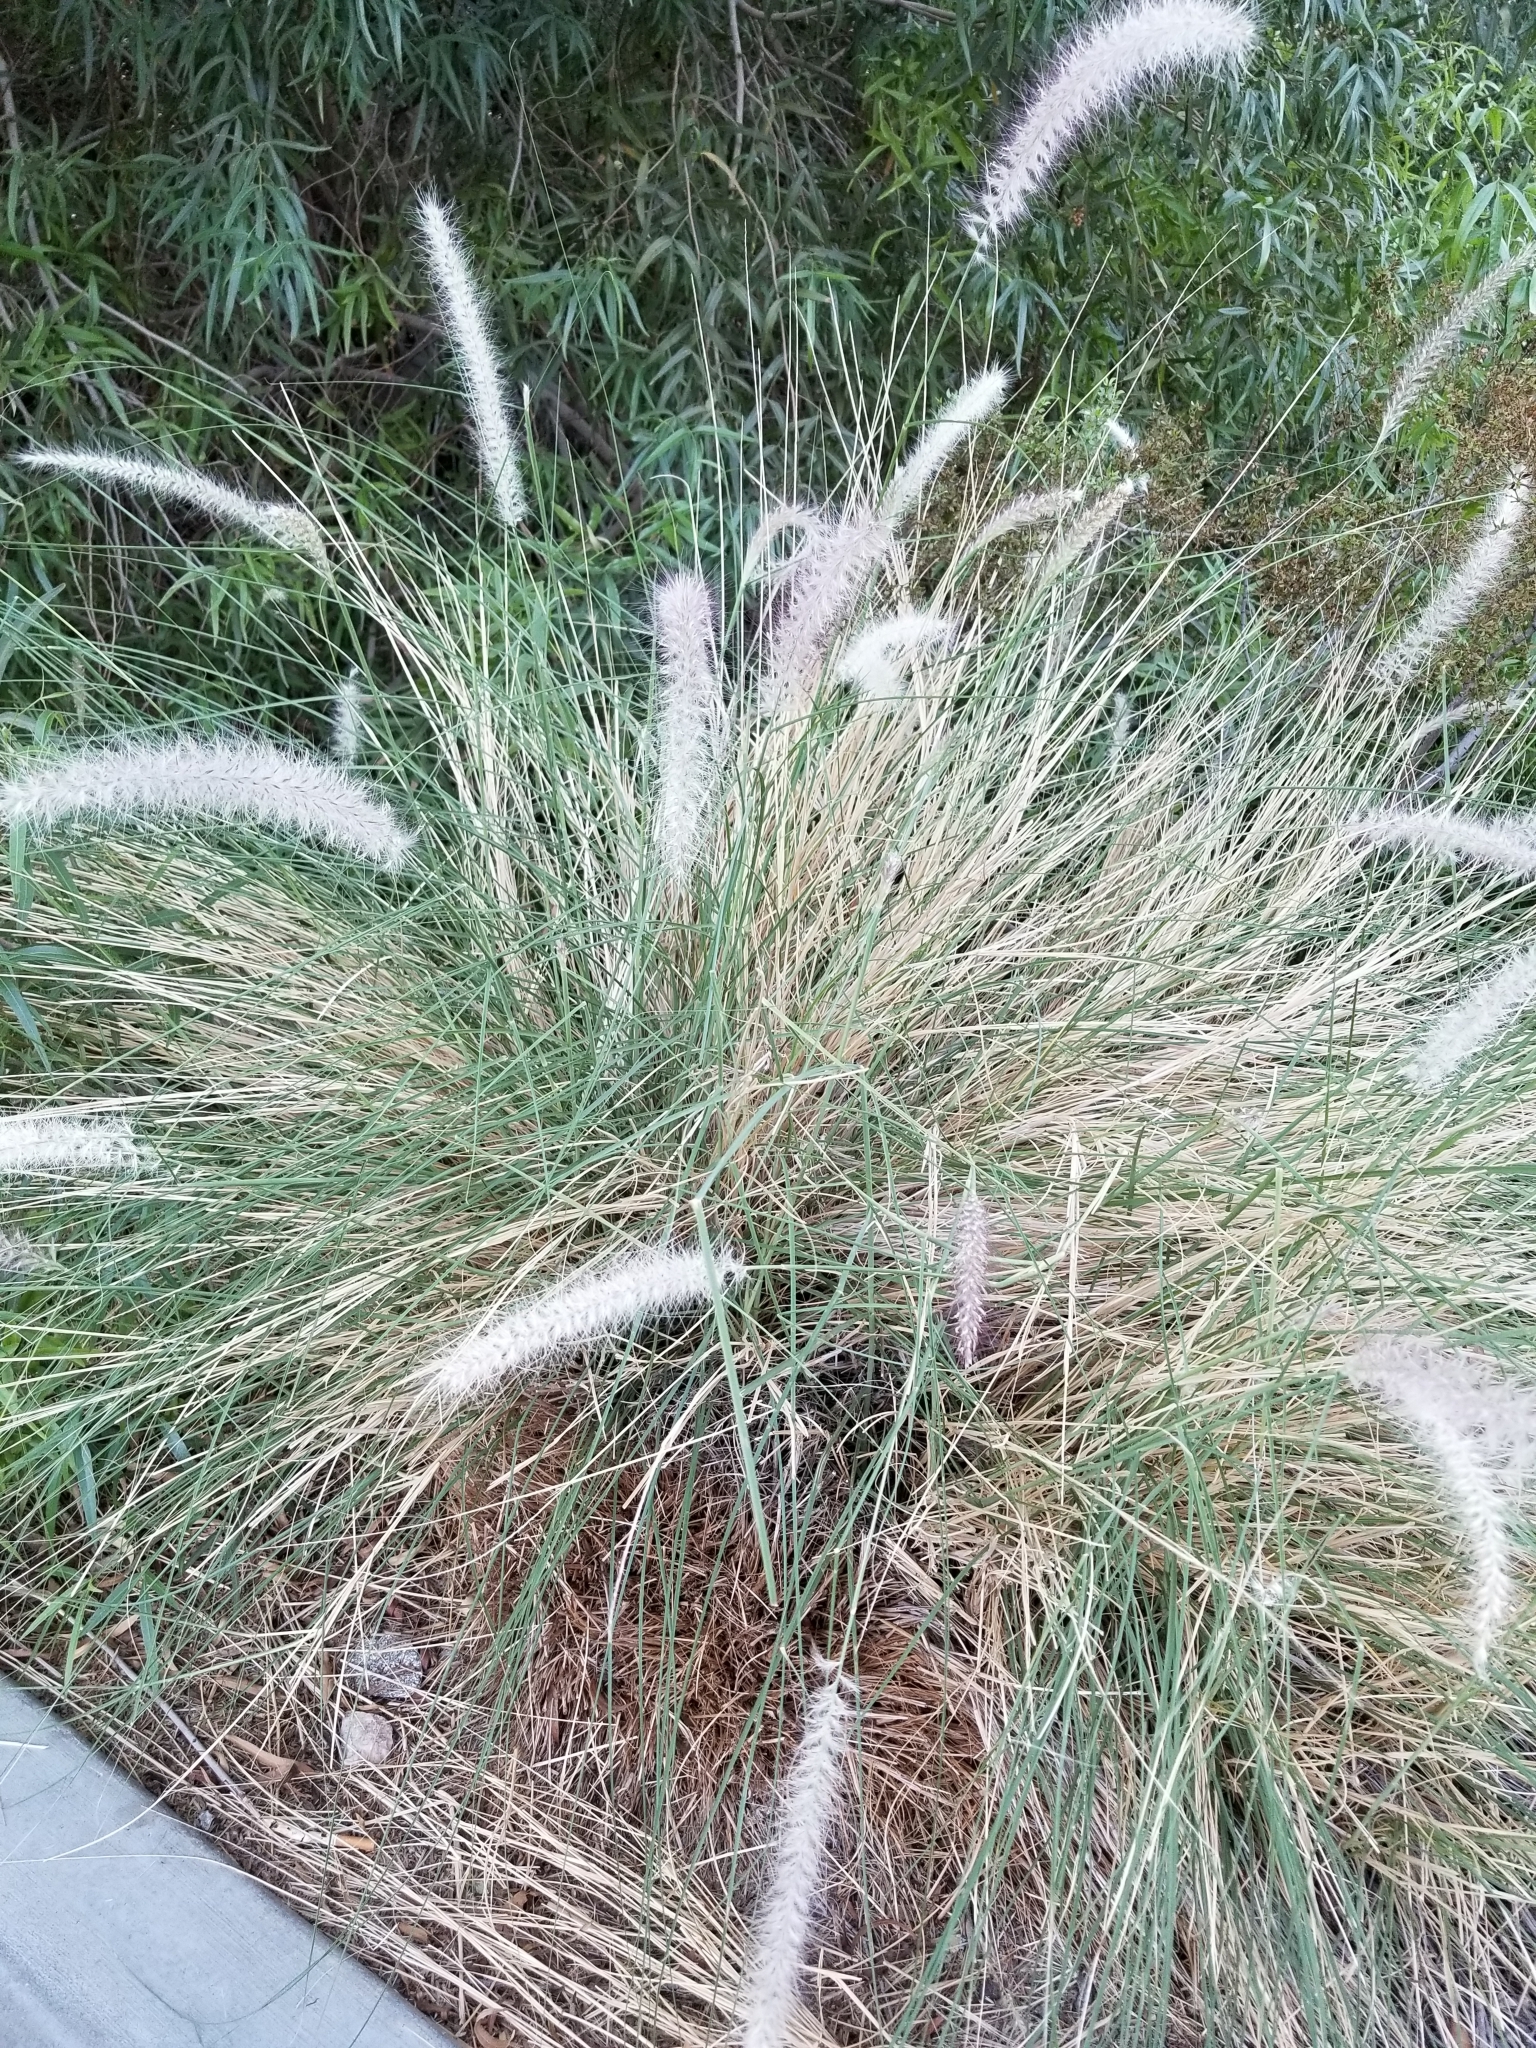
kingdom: Plantae
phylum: Tracheophyta
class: Liliopsida
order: Poales
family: Poaceae
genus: Cenchrus
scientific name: Cenchrus setaceus
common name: Crimson fountaingrass
